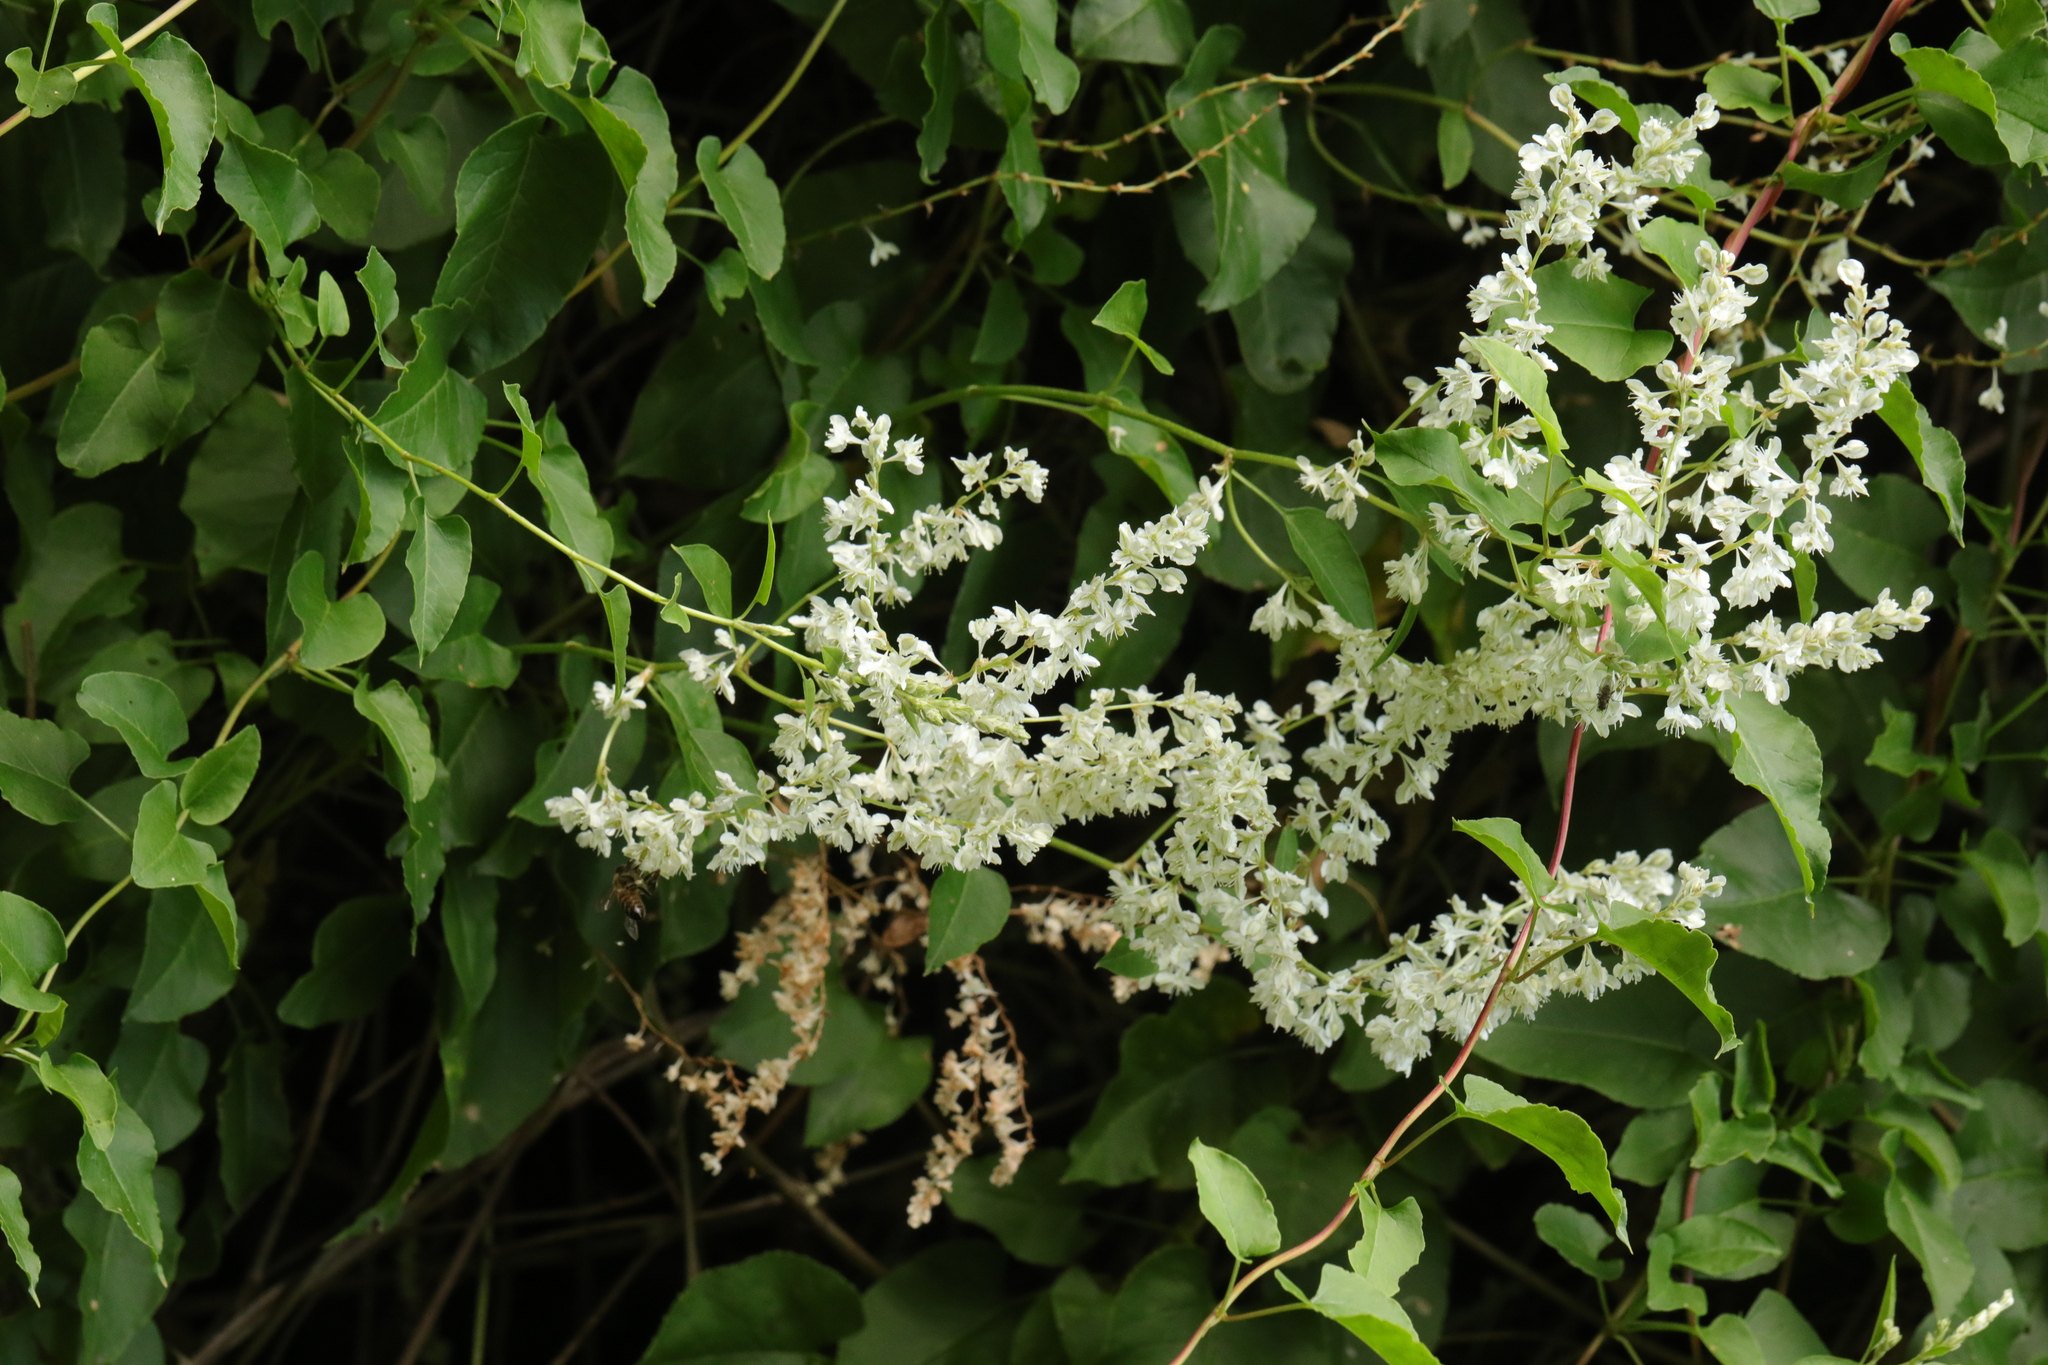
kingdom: Plantae
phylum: Tracheophyta
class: Magnoliopsida
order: Caryophyllales
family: Polygonaceae
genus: Fallopia
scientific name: Fallopia baldschuanica
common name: Russian-vine
